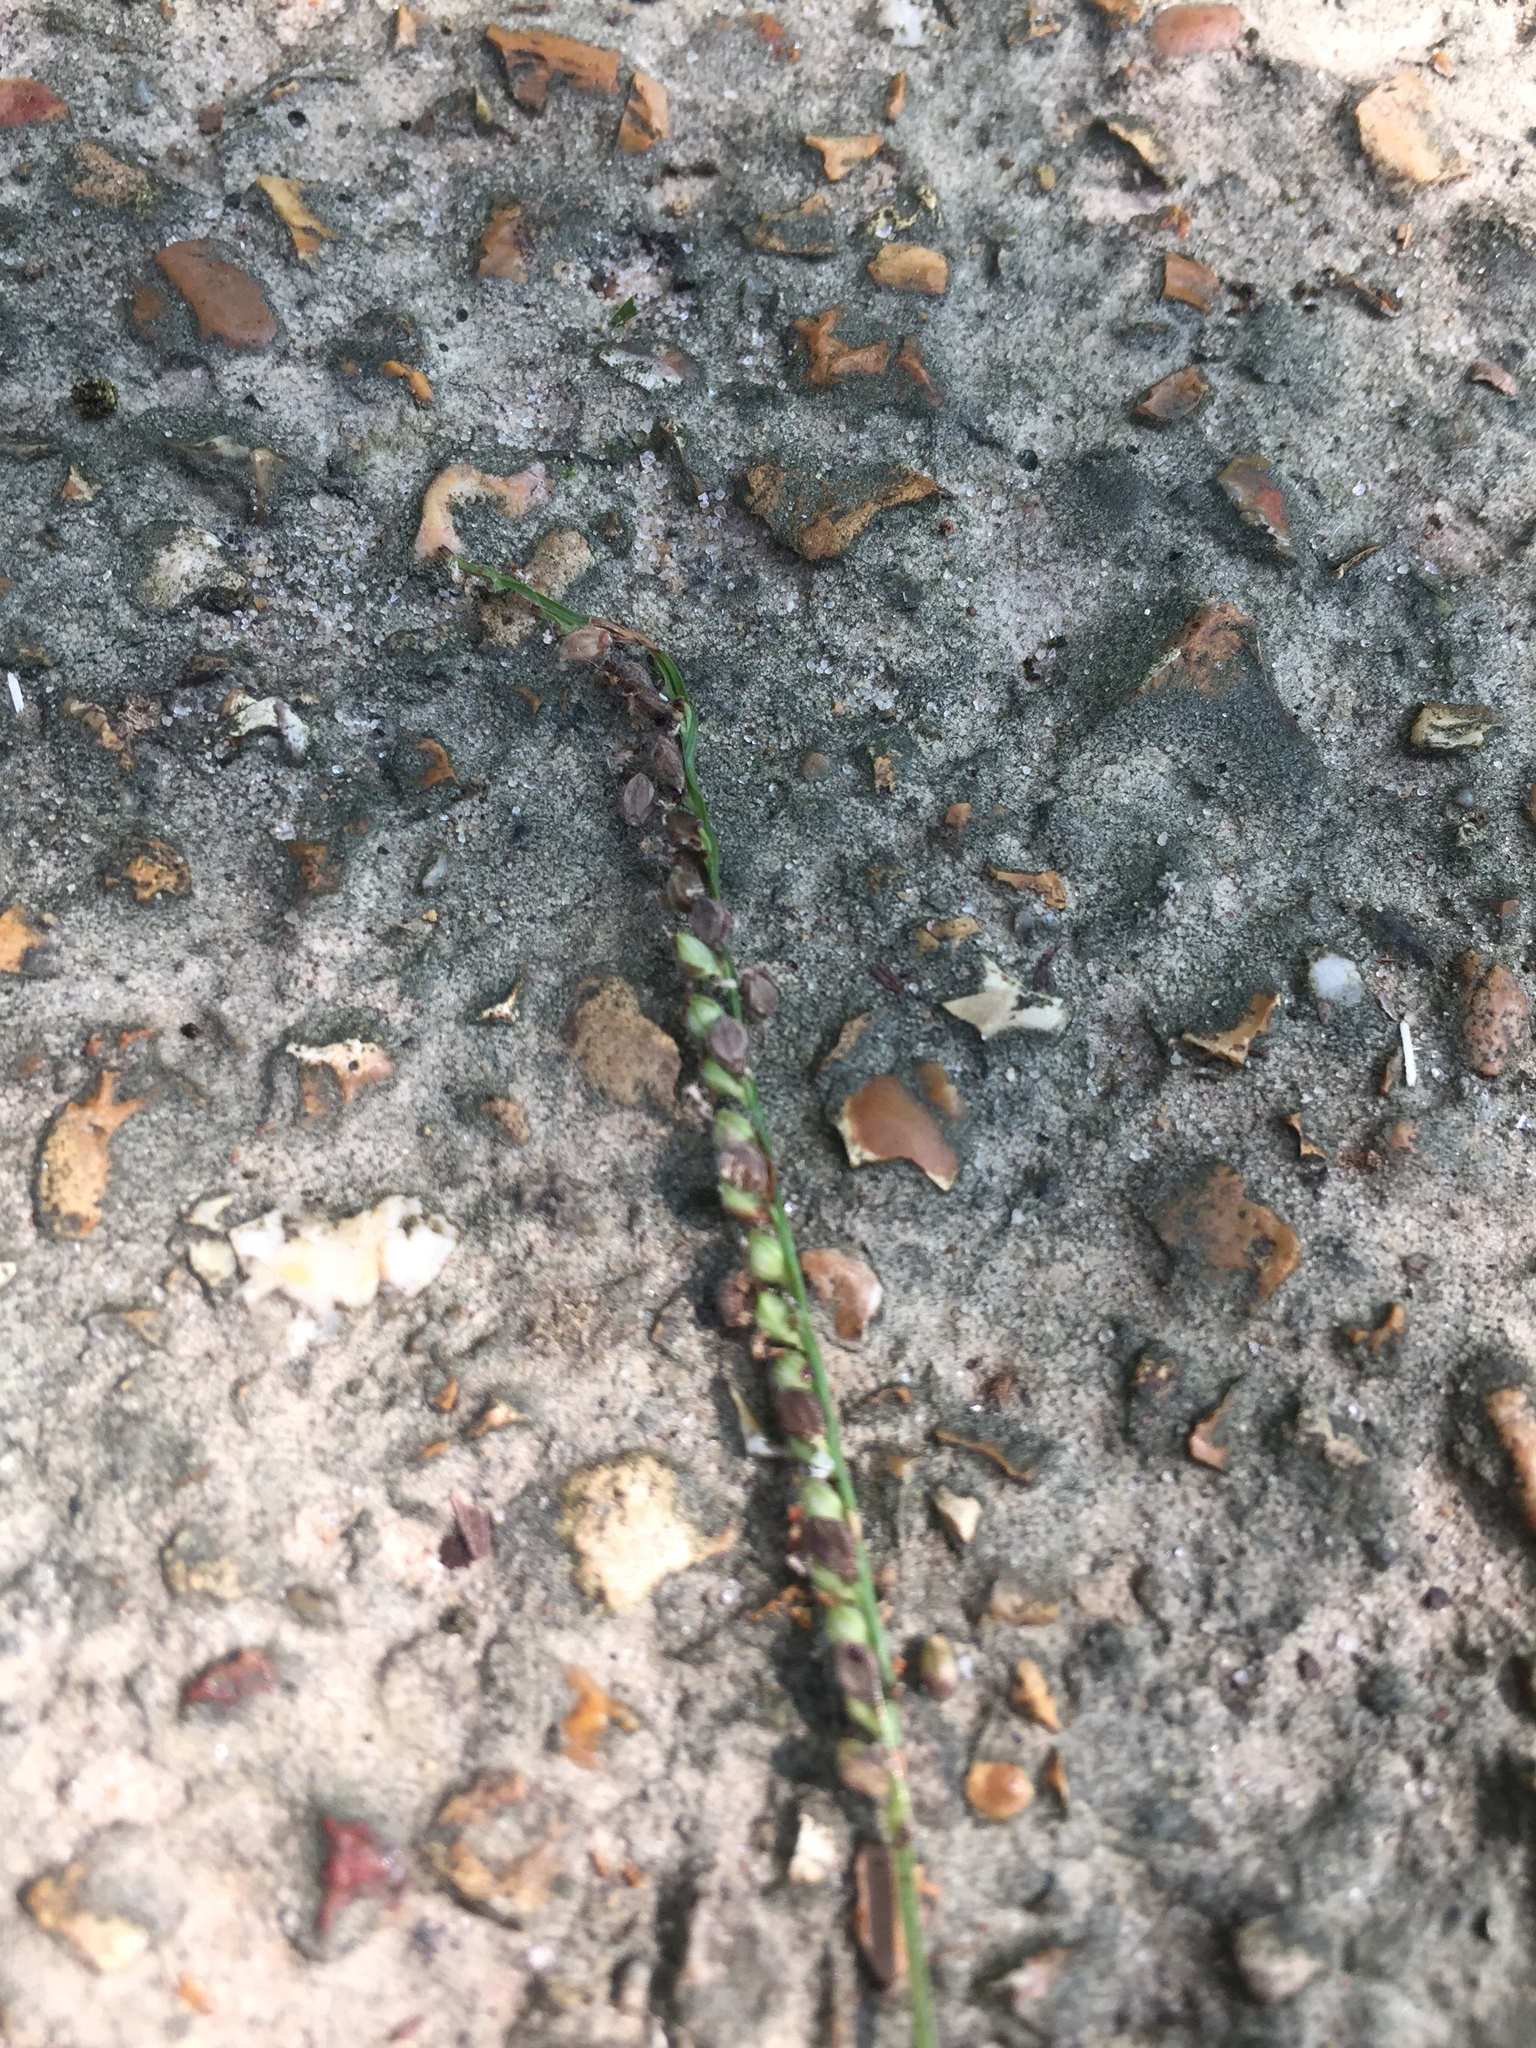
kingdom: Plantae
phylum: Tracheophyta
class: Liliopsida
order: Poales
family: Poaceae
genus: Paspalum
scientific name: Paspalum setaceum
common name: Slender paspalum
